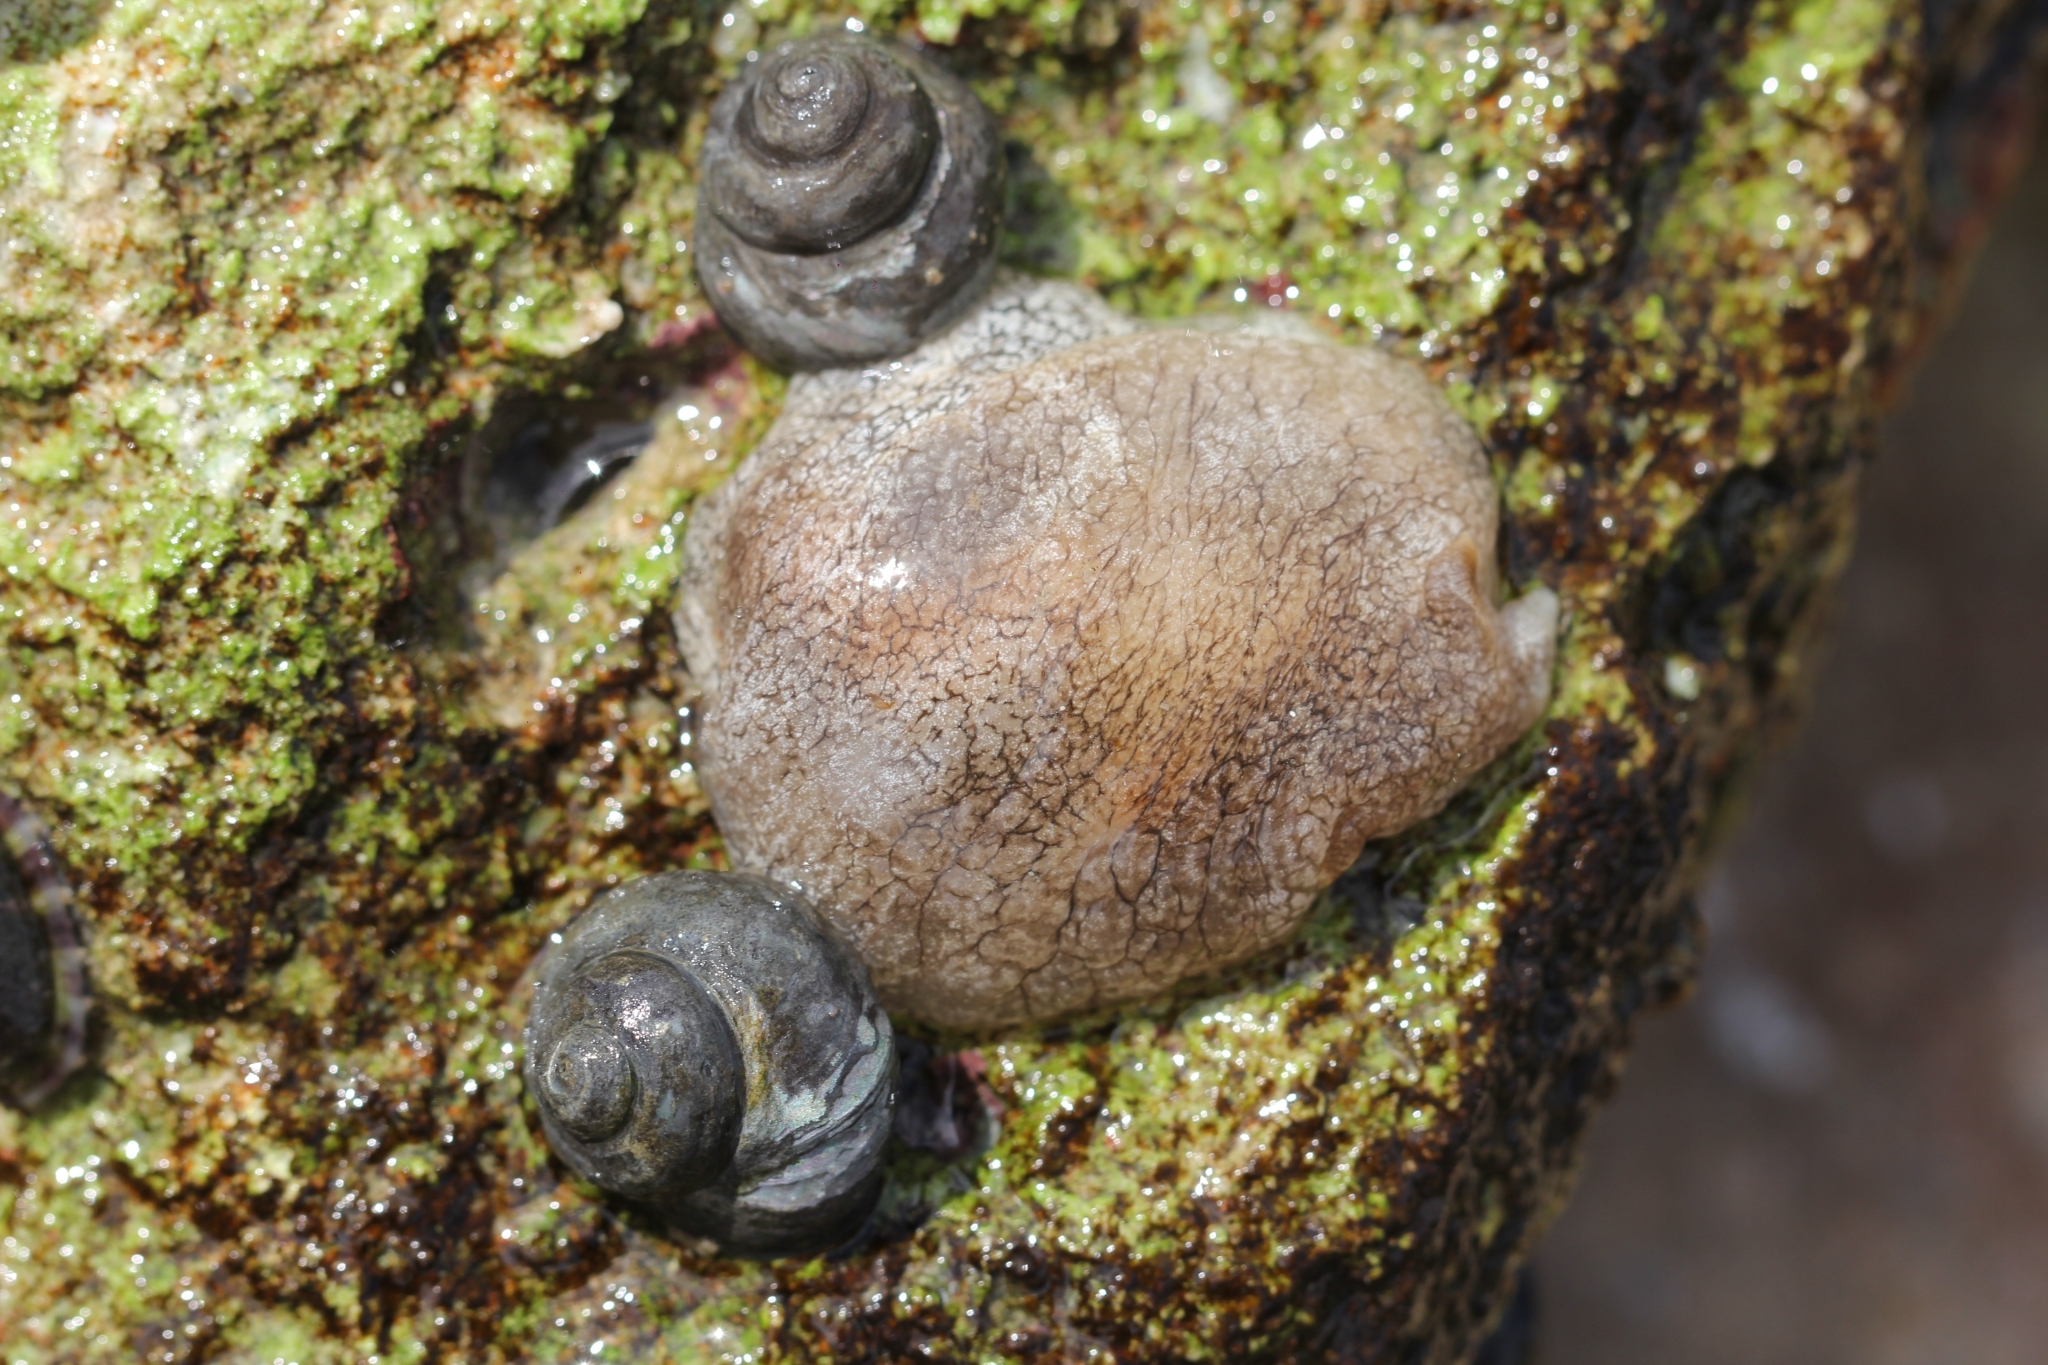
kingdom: Animalia
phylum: Mollusca
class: Gastropoda
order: Pleurobranchida
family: Pleurobranchaeidae
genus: Pleurobranchaea
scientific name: Pleurobranchaea maculata
